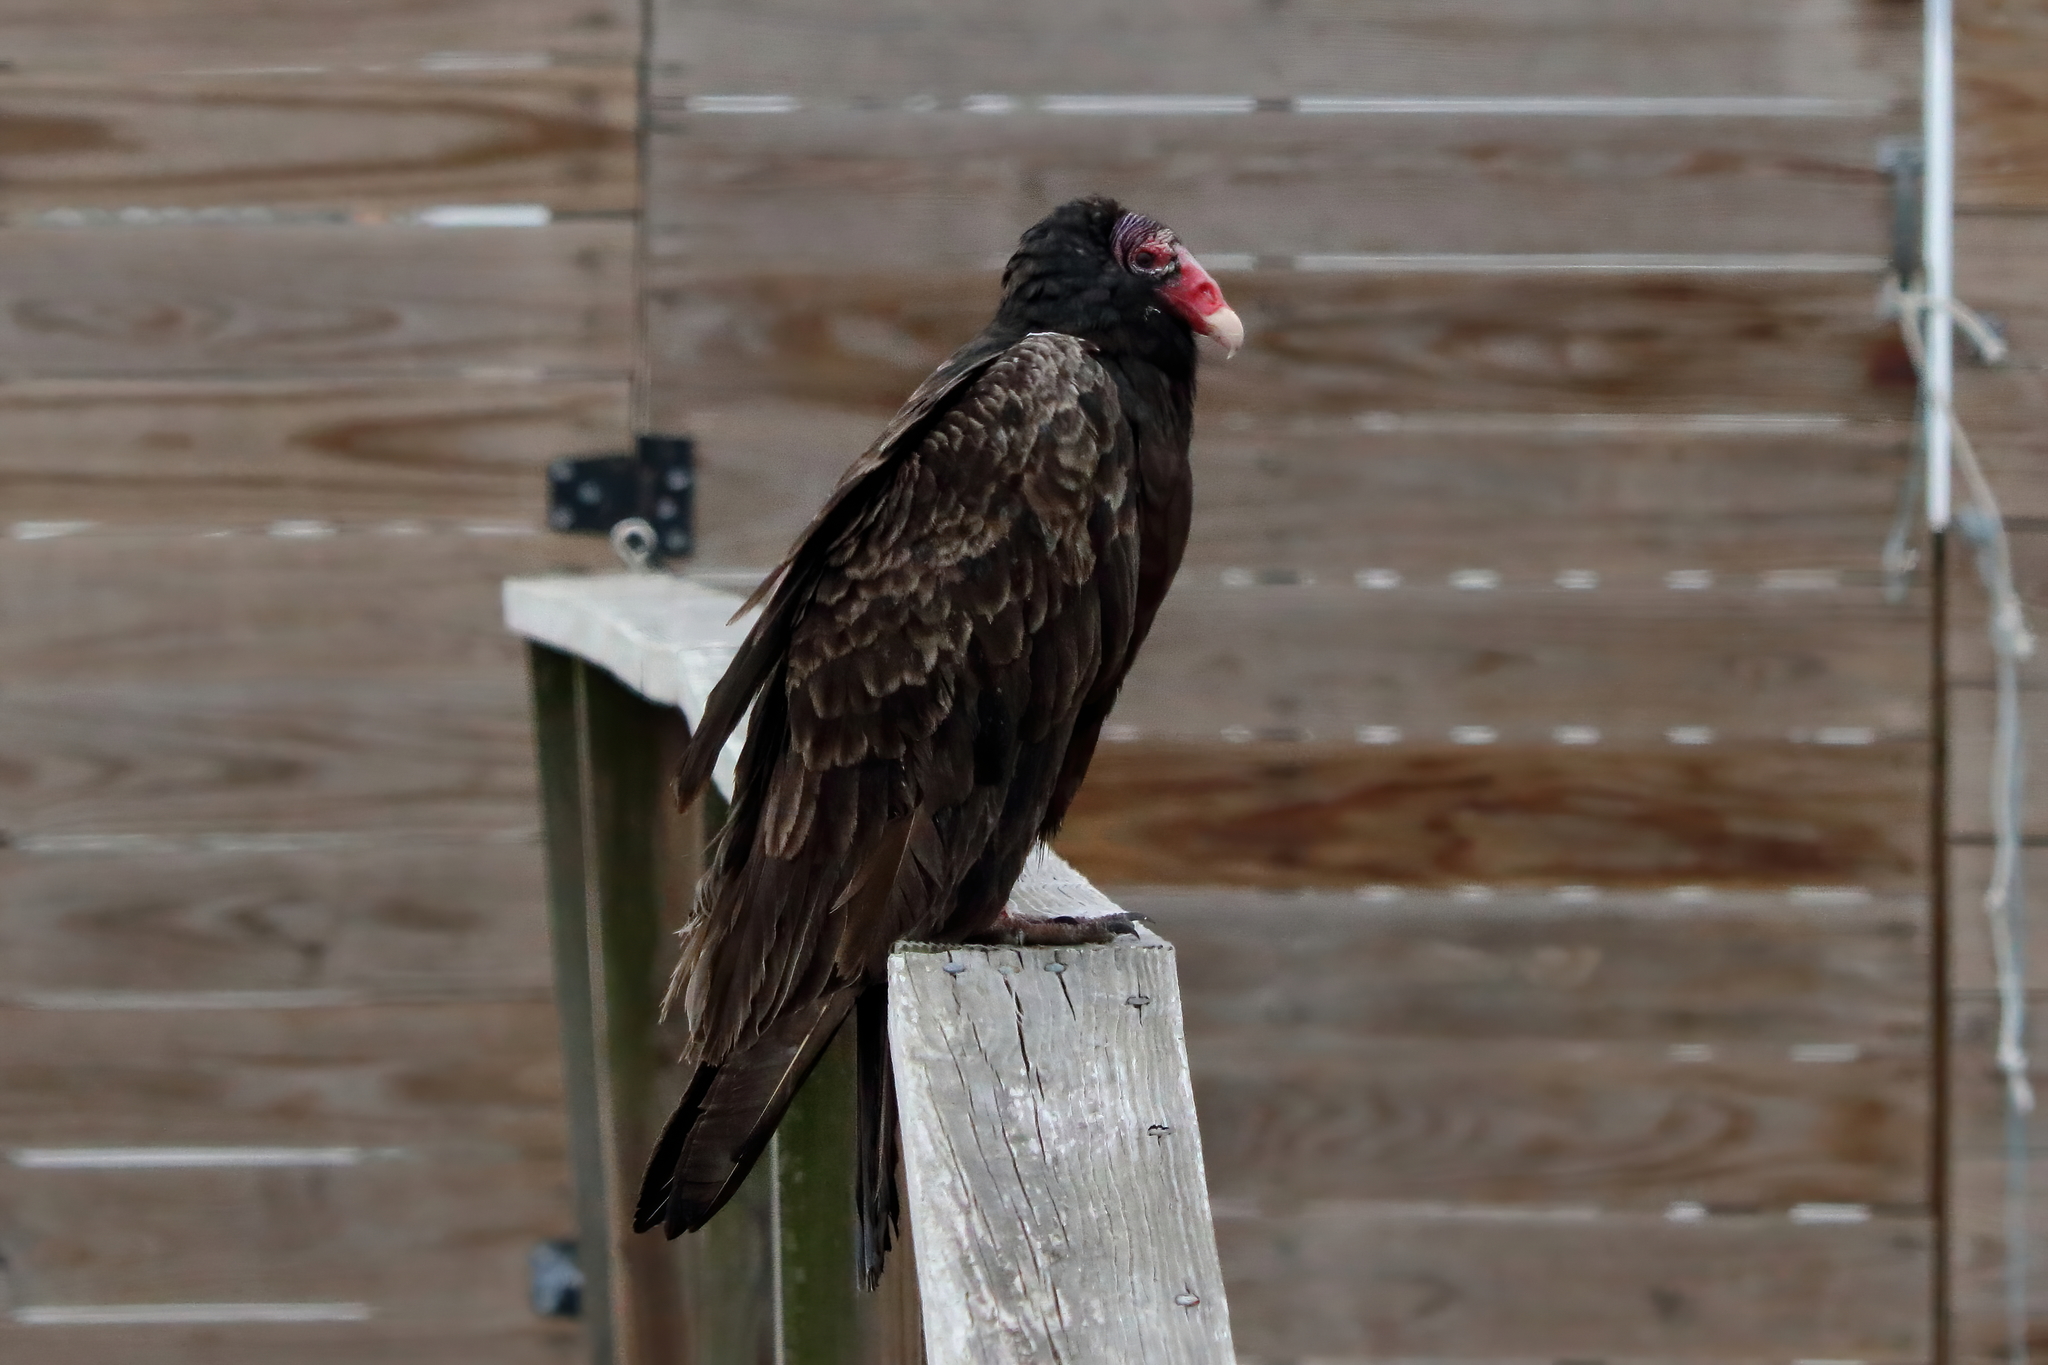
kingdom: Animalia
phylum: Chordata
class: Aves
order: Accipitriformes
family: Cathartidae
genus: Cathartes
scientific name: Cathartes aura
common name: Turkey vulture
